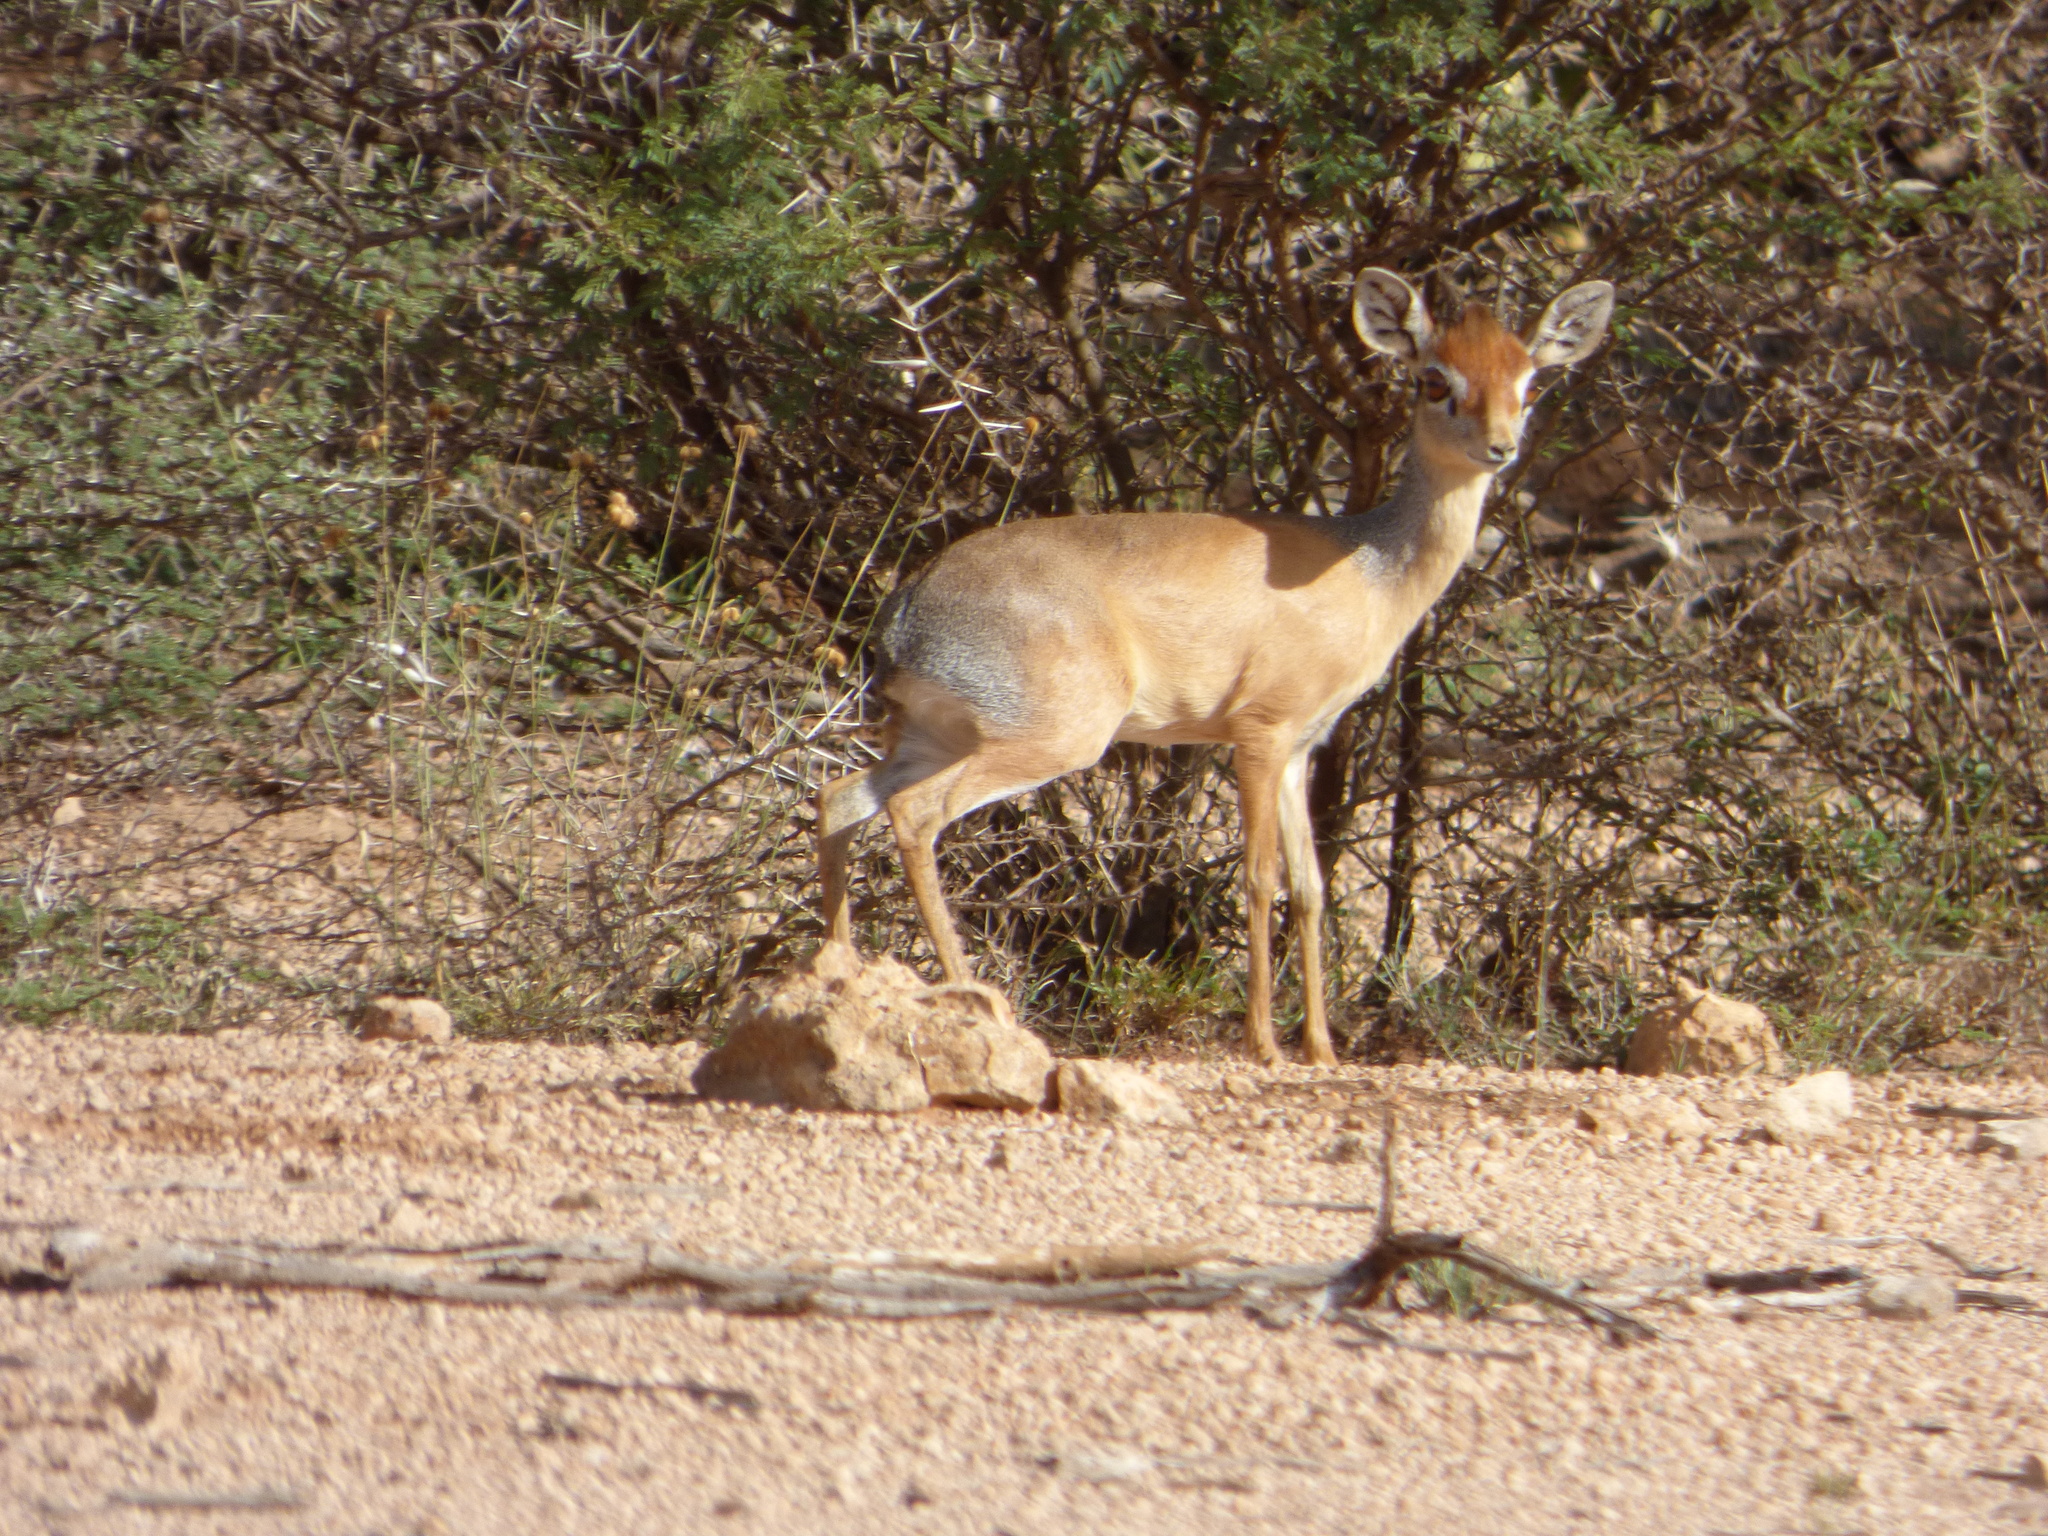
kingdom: Animalia
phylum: Chordata
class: Mammalia
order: Artiodactyla
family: Bovidae
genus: Madoqua
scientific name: Madoqua saltiana
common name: Salt's dikdik
